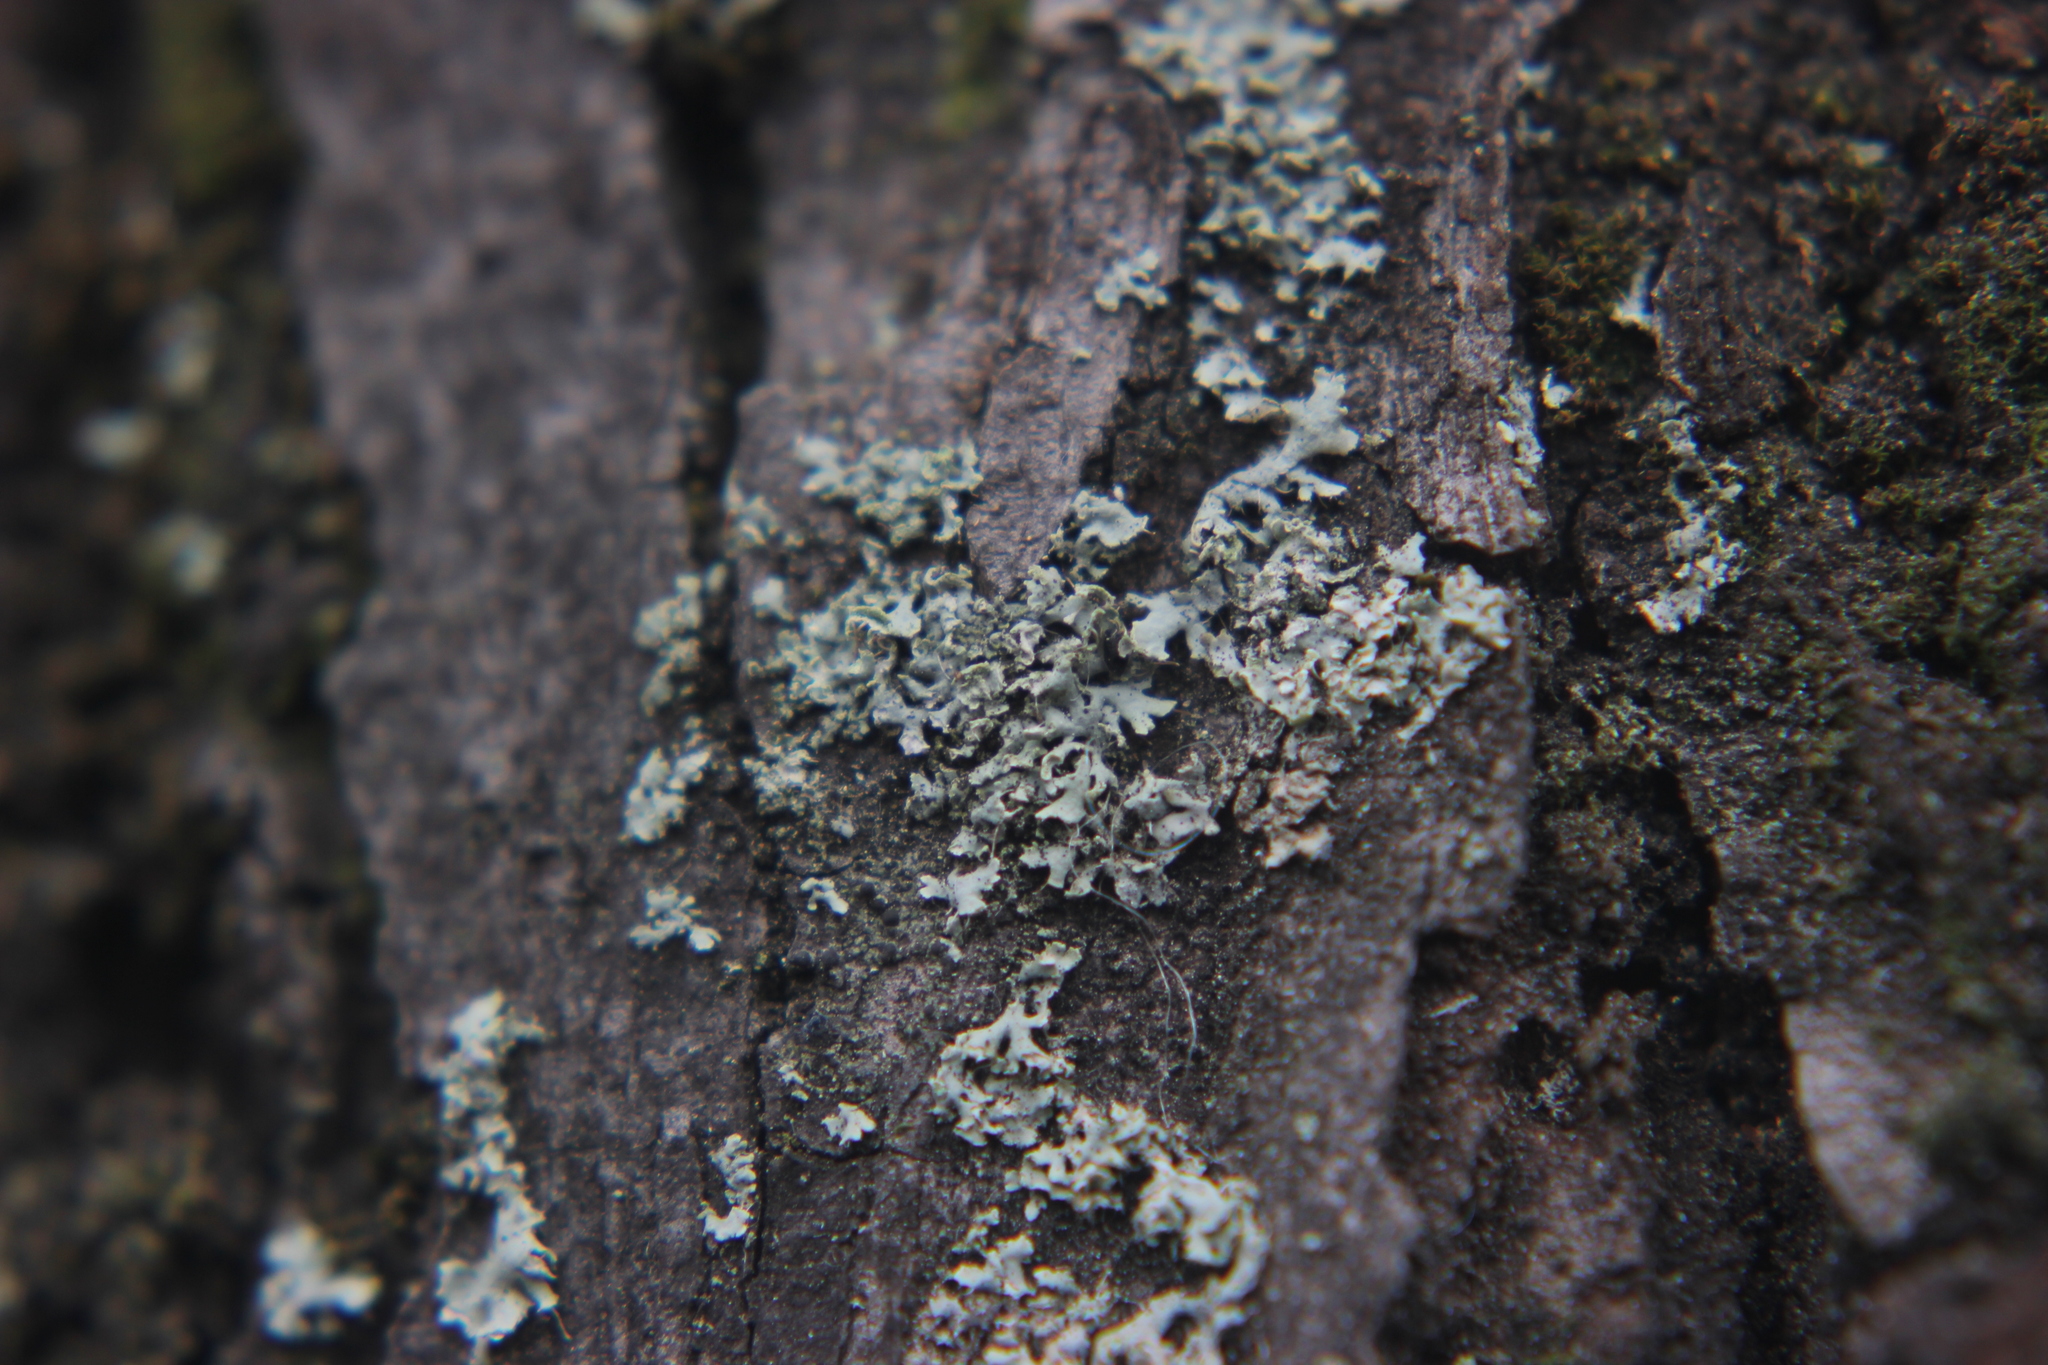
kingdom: Fungi
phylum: Ascomycota
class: Lecanoromycetes
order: Caliciales
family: Physciaceae
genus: Physcia
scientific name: Physcia adscendens
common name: Hooded rosette lichen
